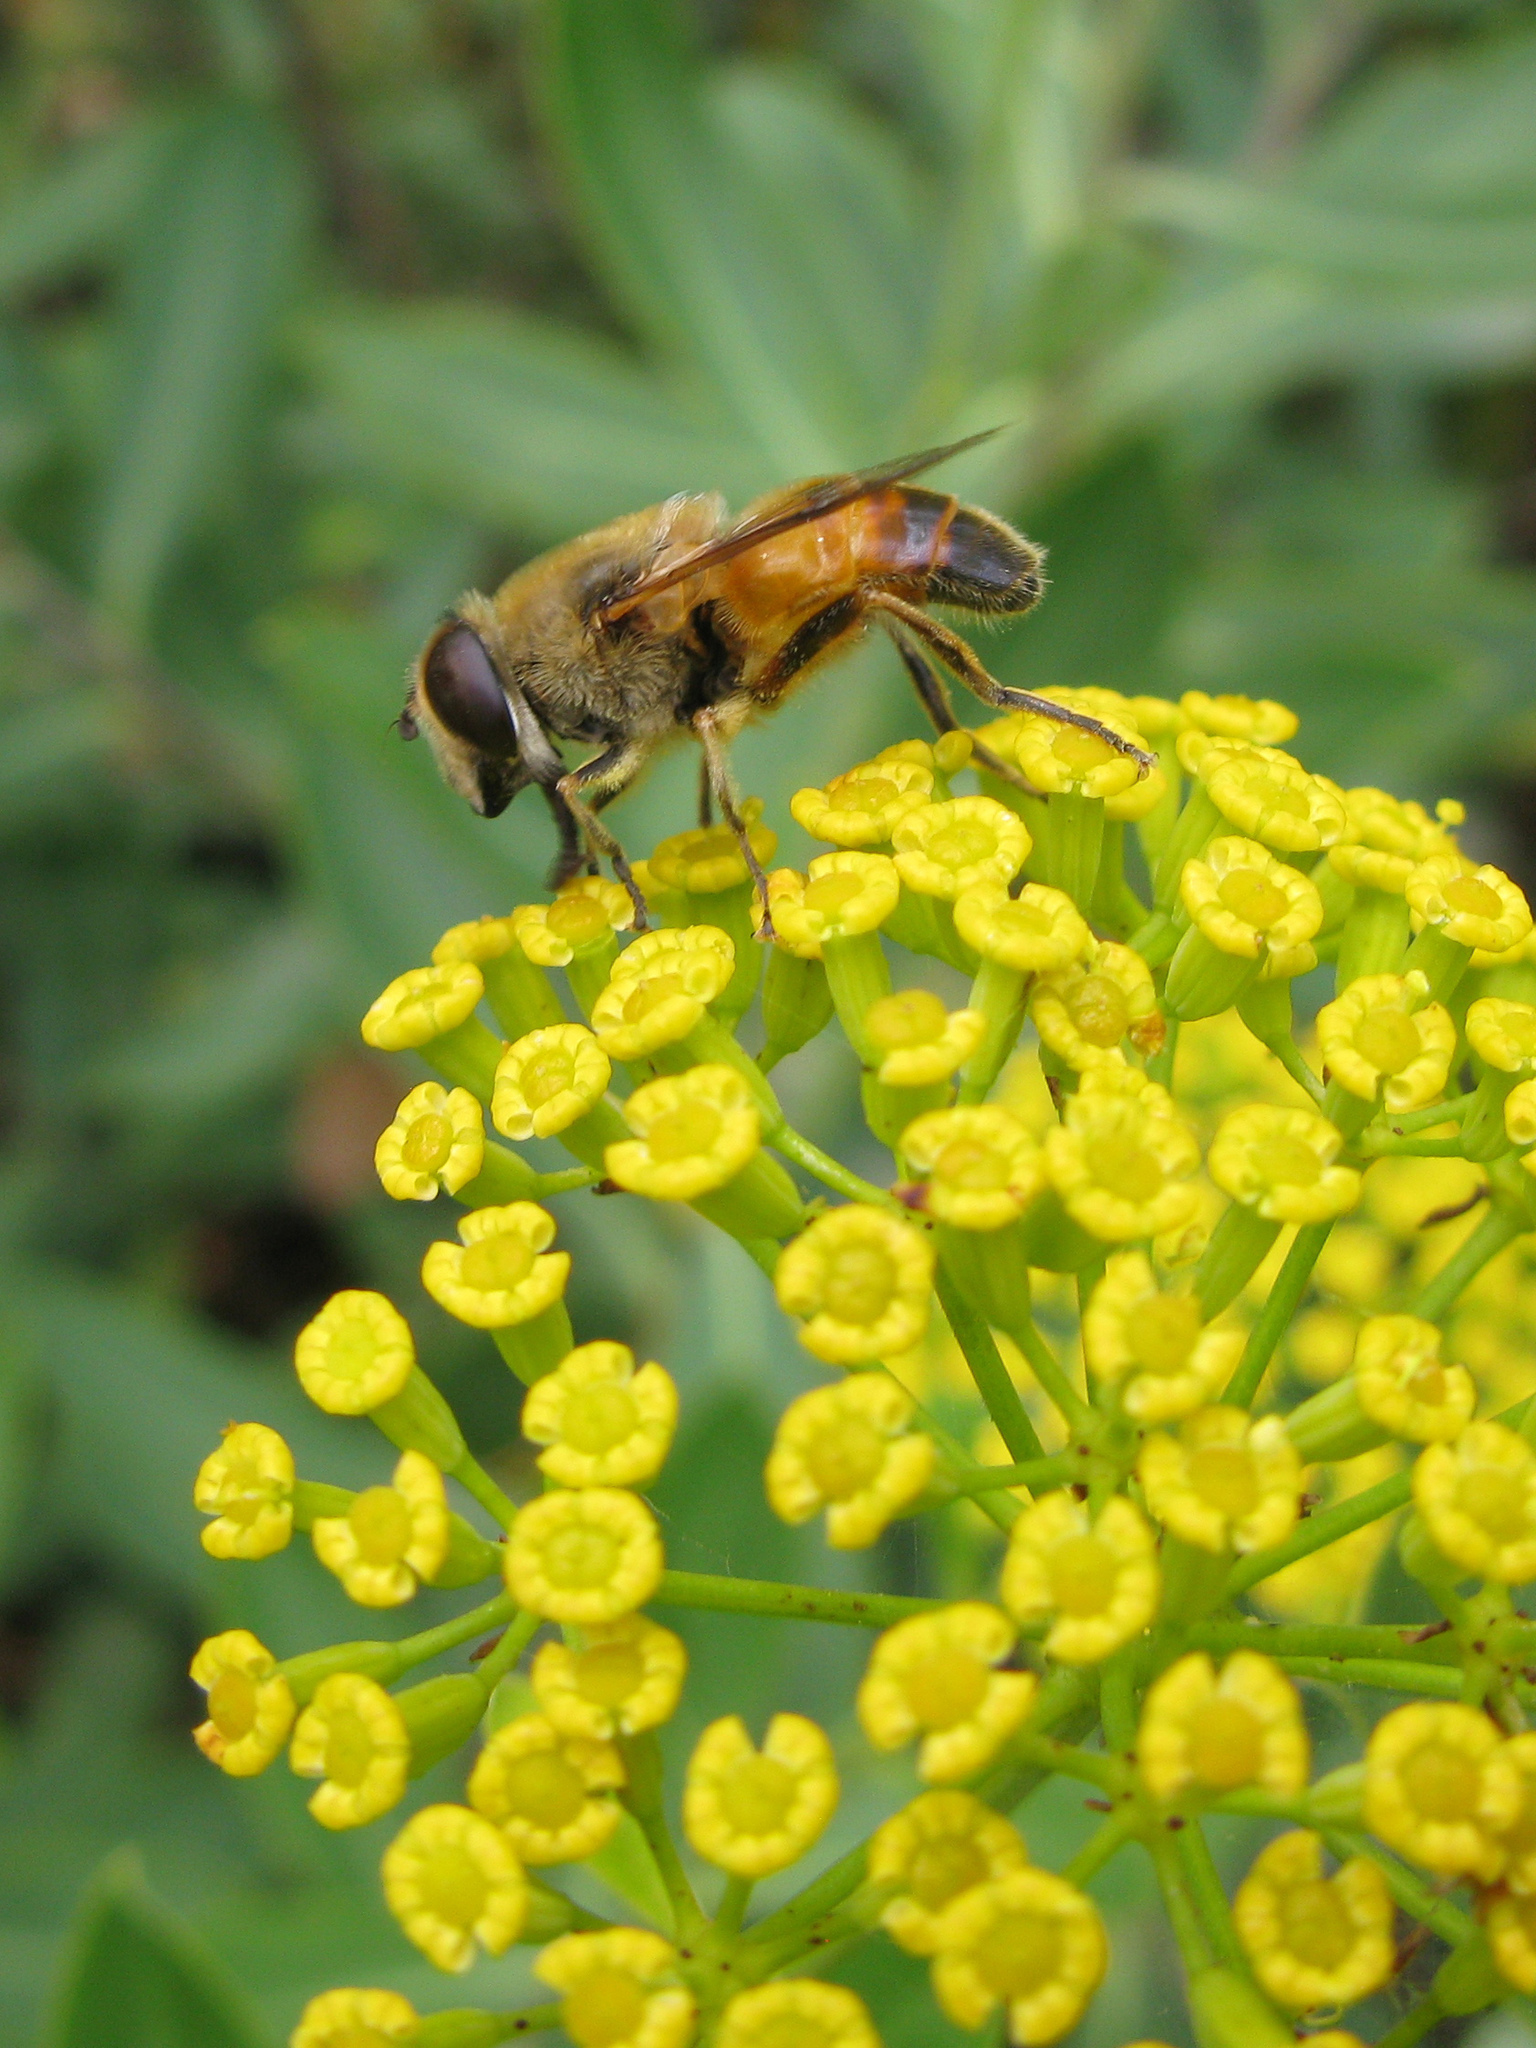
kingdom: Animalia
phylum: Arthropoda
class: Insecta
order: Diptera
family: Syrphidae
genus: Eristalis
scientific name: Eristalis tenax
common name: Drone fly
